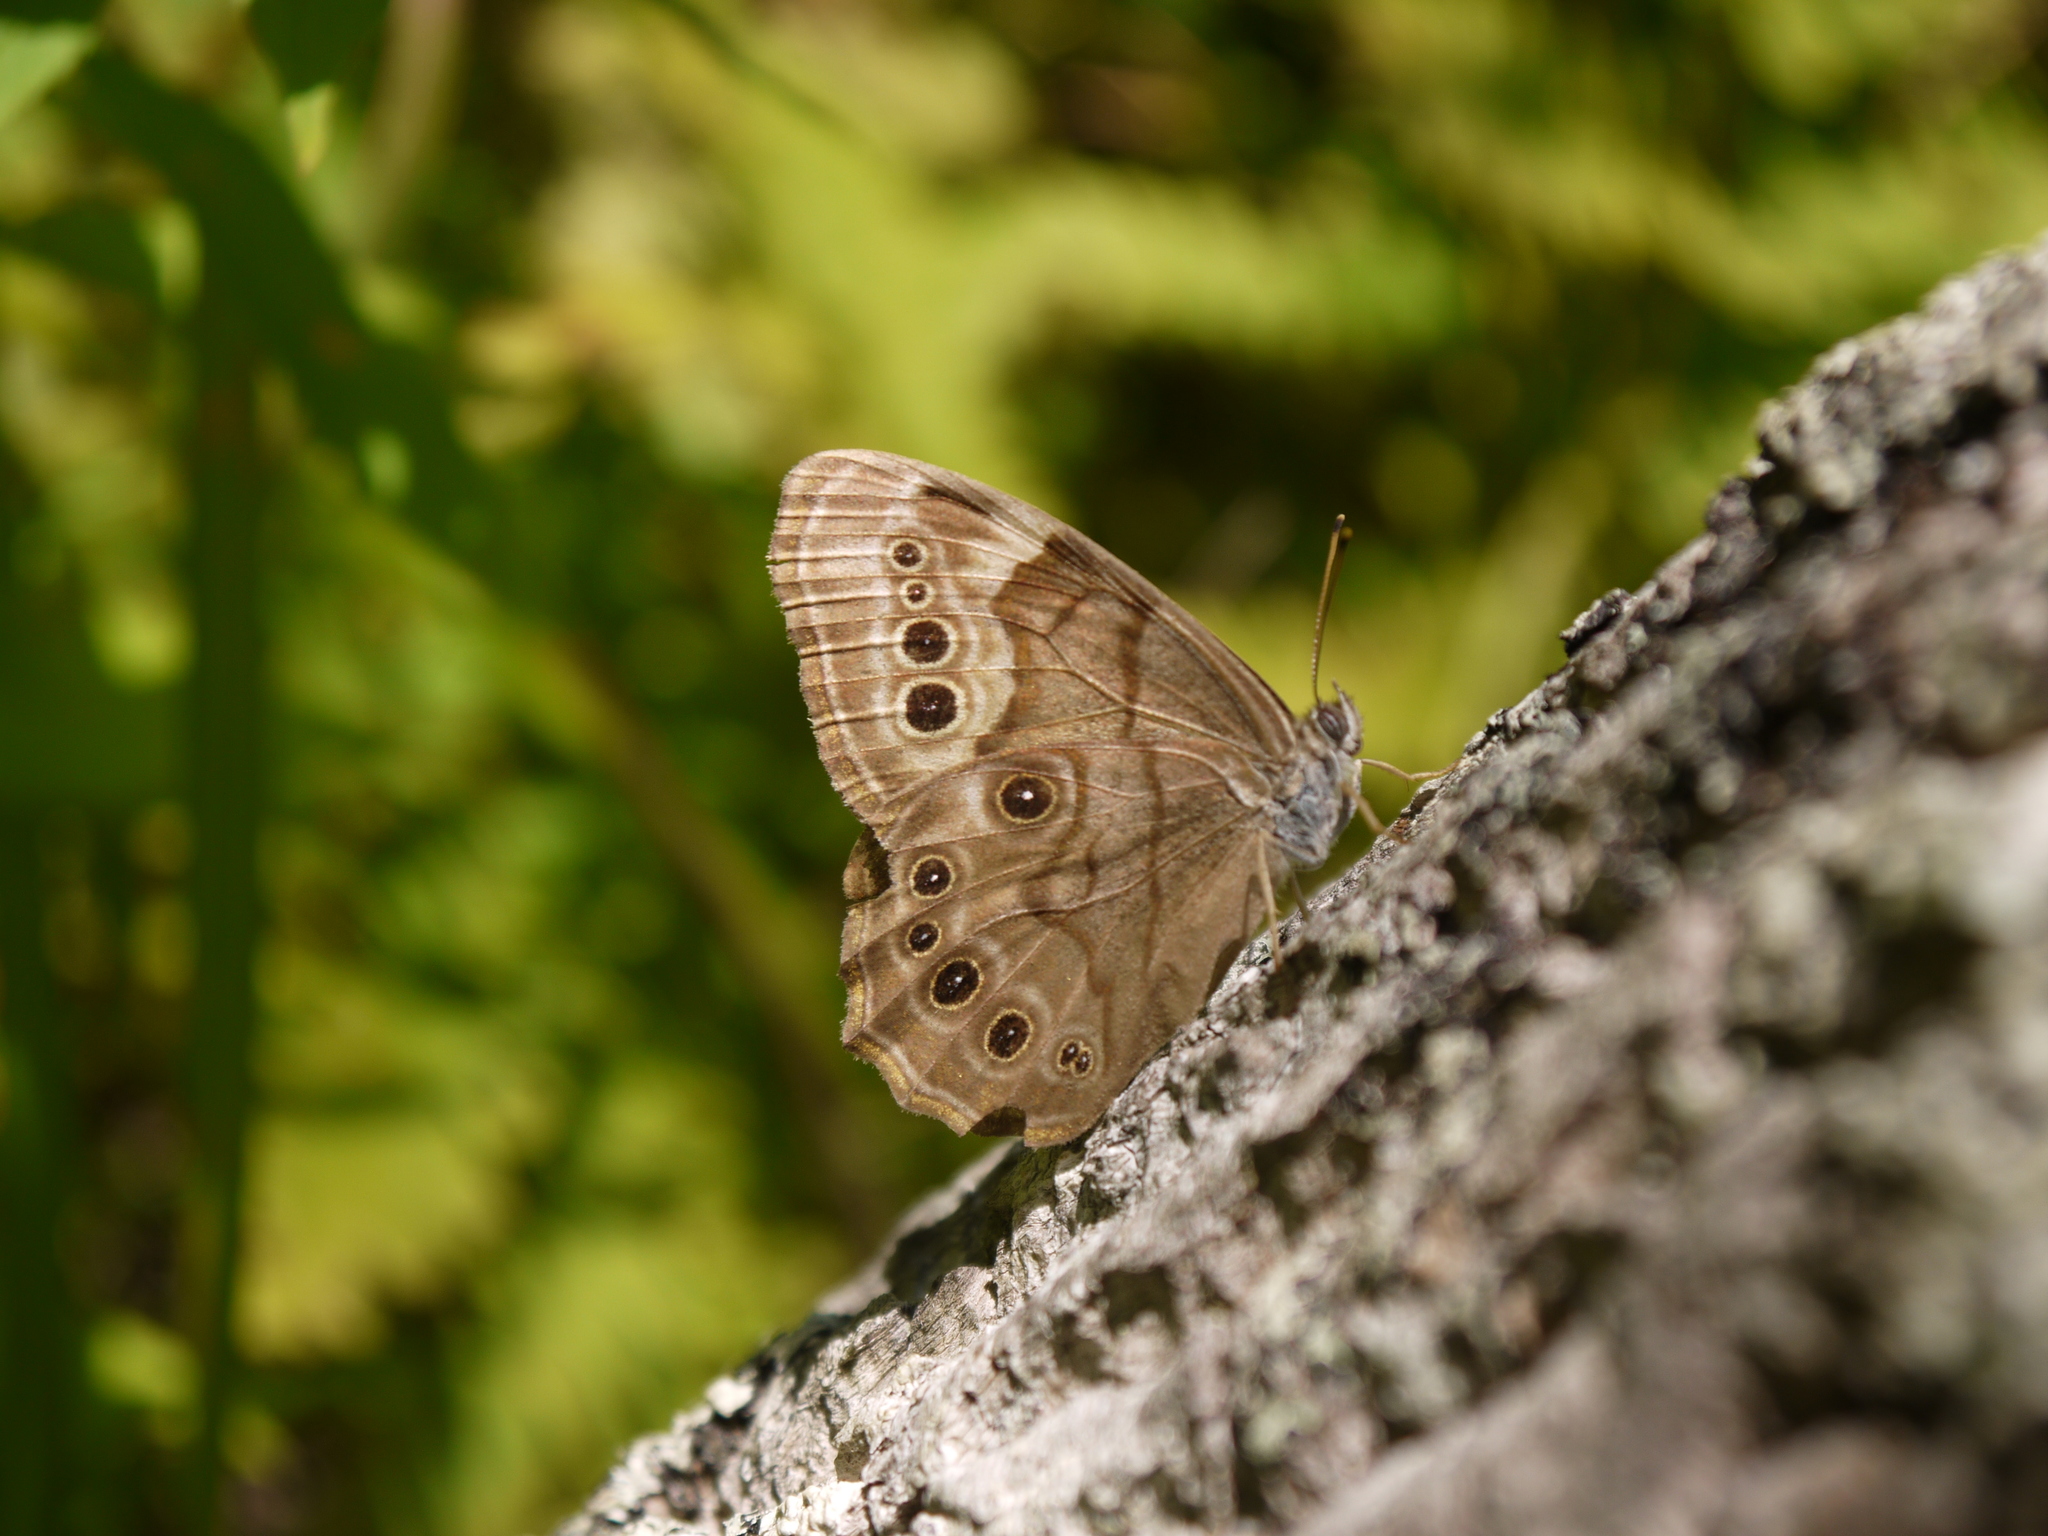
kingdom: Animalia
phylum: Arthropoda
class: Insecta
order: Lepidoptera
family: Nymphalidae
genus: Lethe
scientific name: Lethe anthedon
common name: Northern pearly-eye
